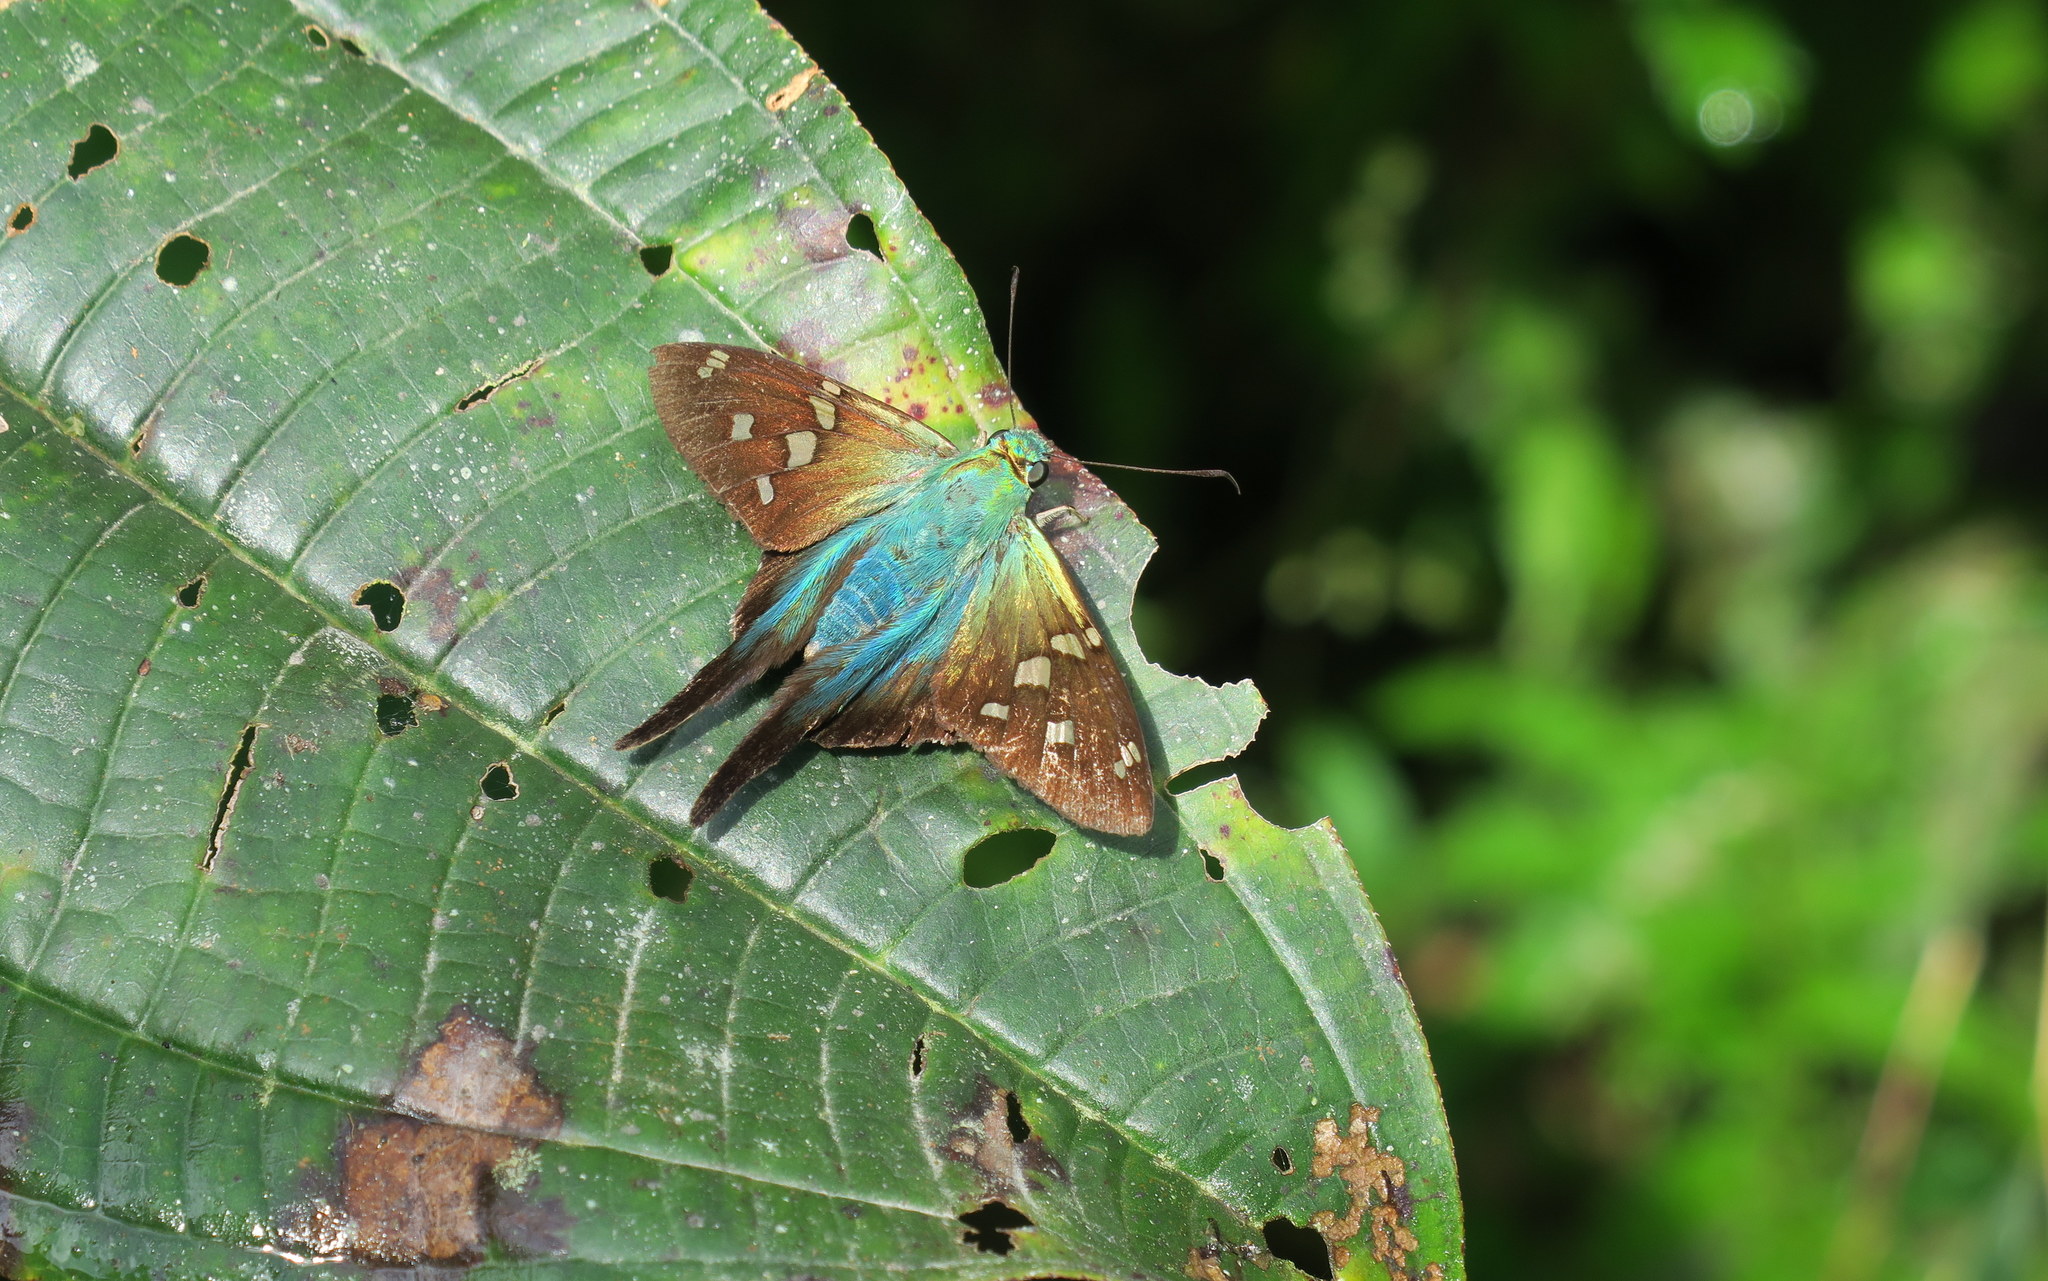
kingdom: Animalia
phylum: Arthropoda
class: Insecta
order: Lepidoptera
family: Hesperiidae
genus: Urbanus
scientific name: Urbanus proteus
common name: Long-tailed skipper
